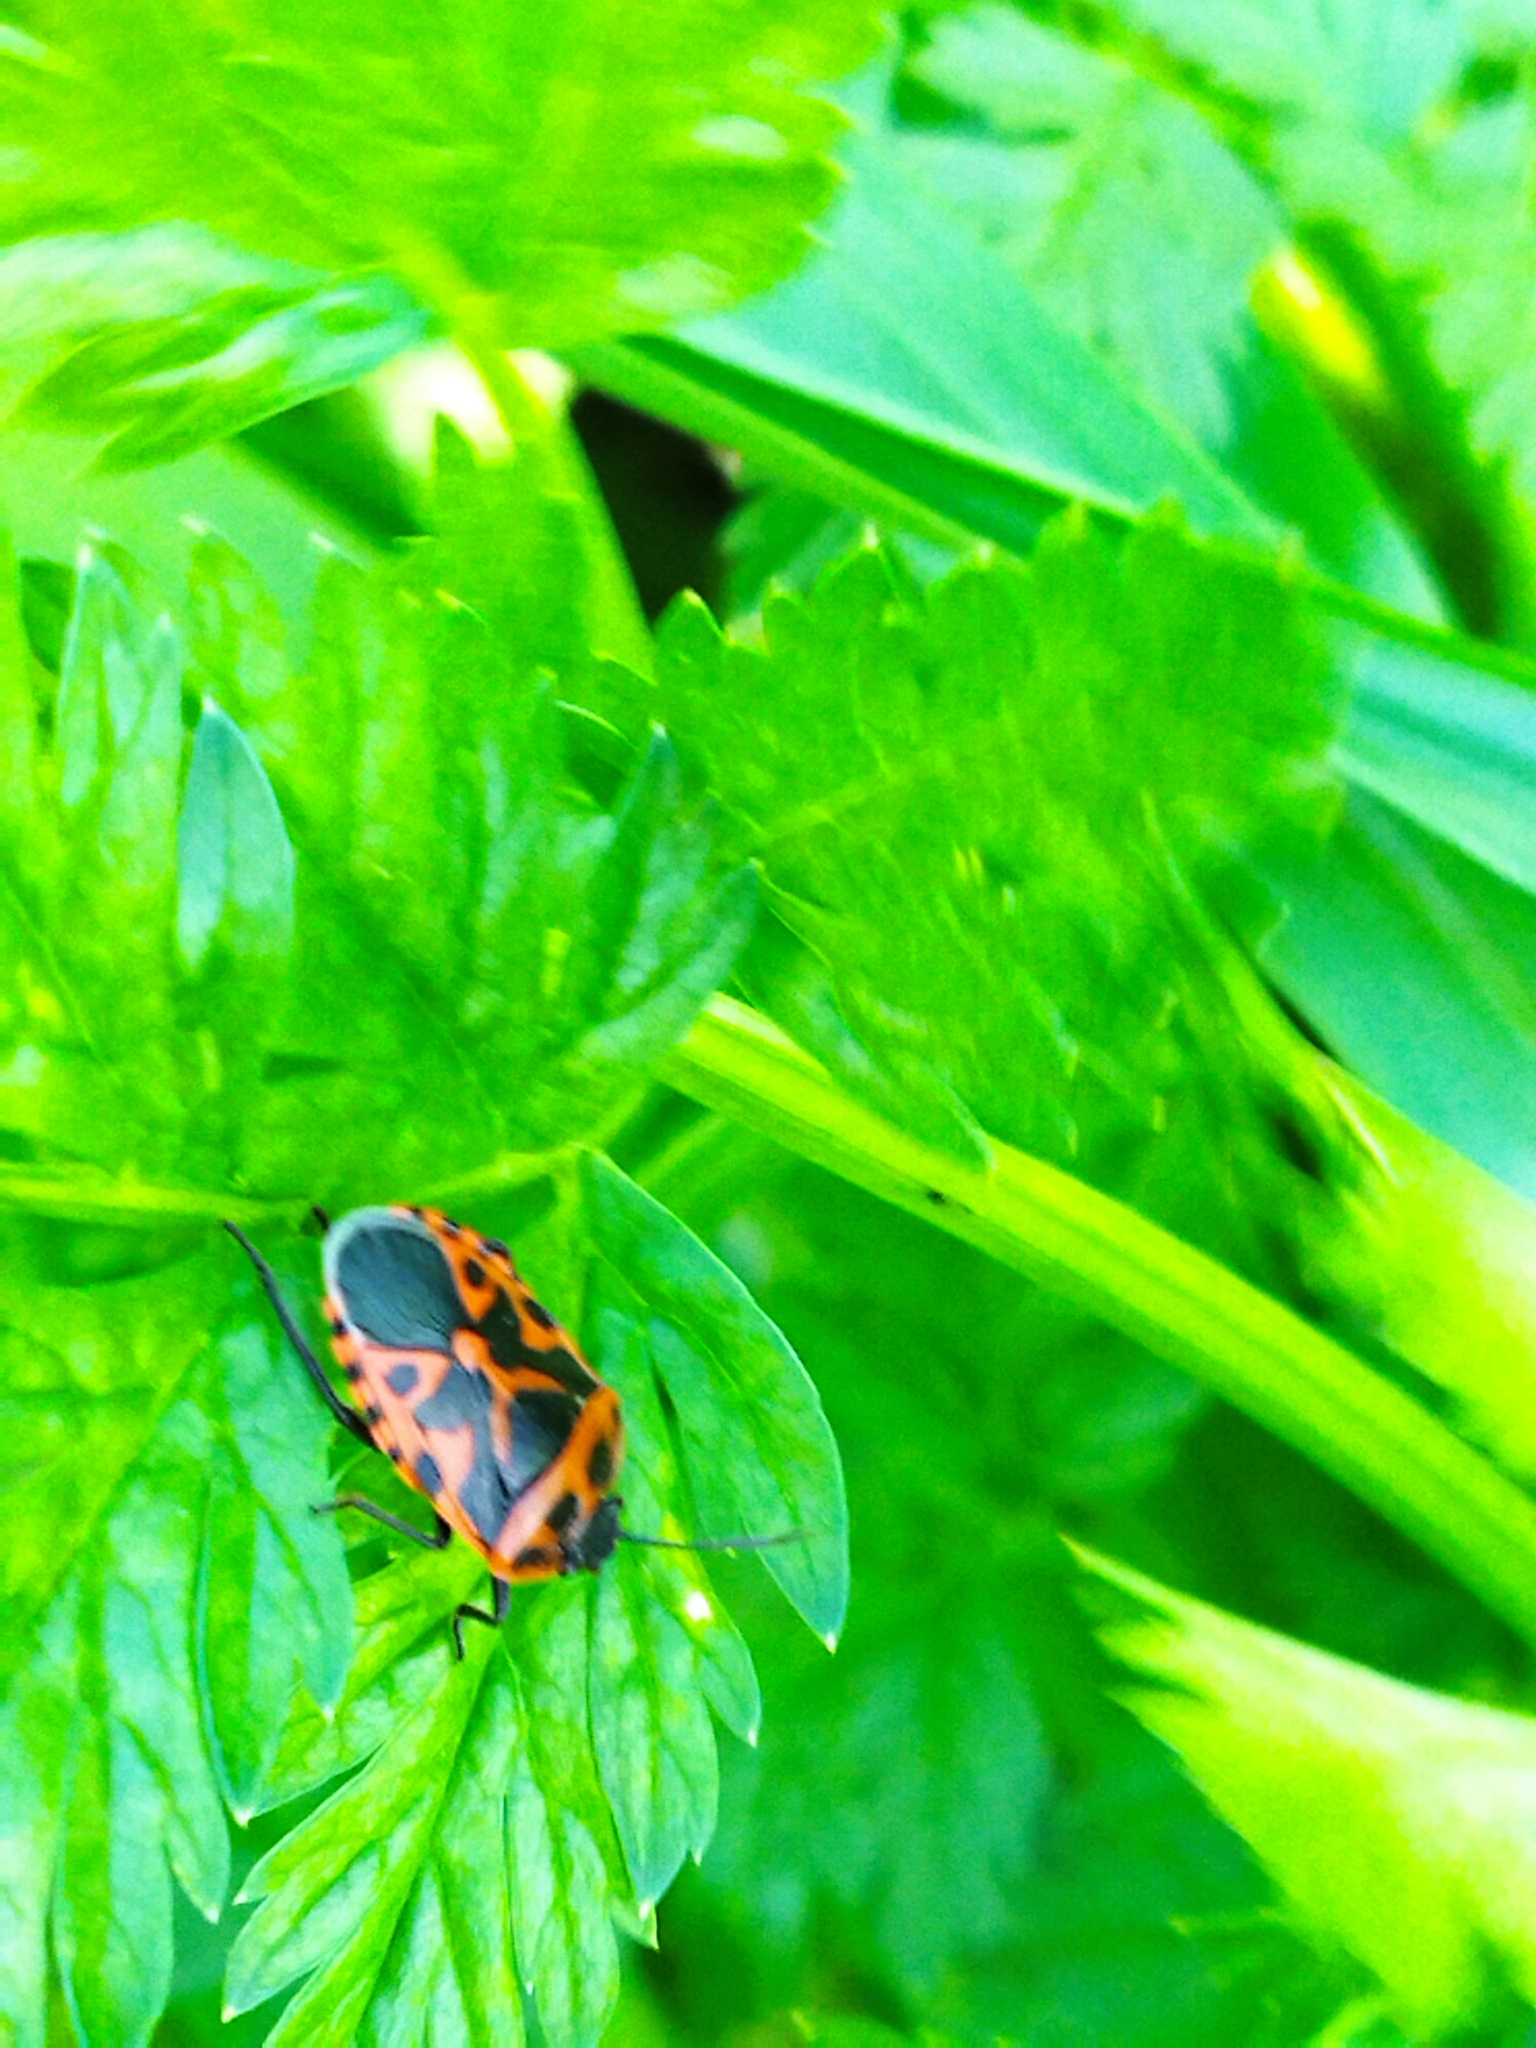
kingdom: Animalia
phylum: Arthropoda
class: Insecta
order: Hemiptera
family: Pentatomidae
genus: Eurydema
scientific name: Eurydema ventralis
